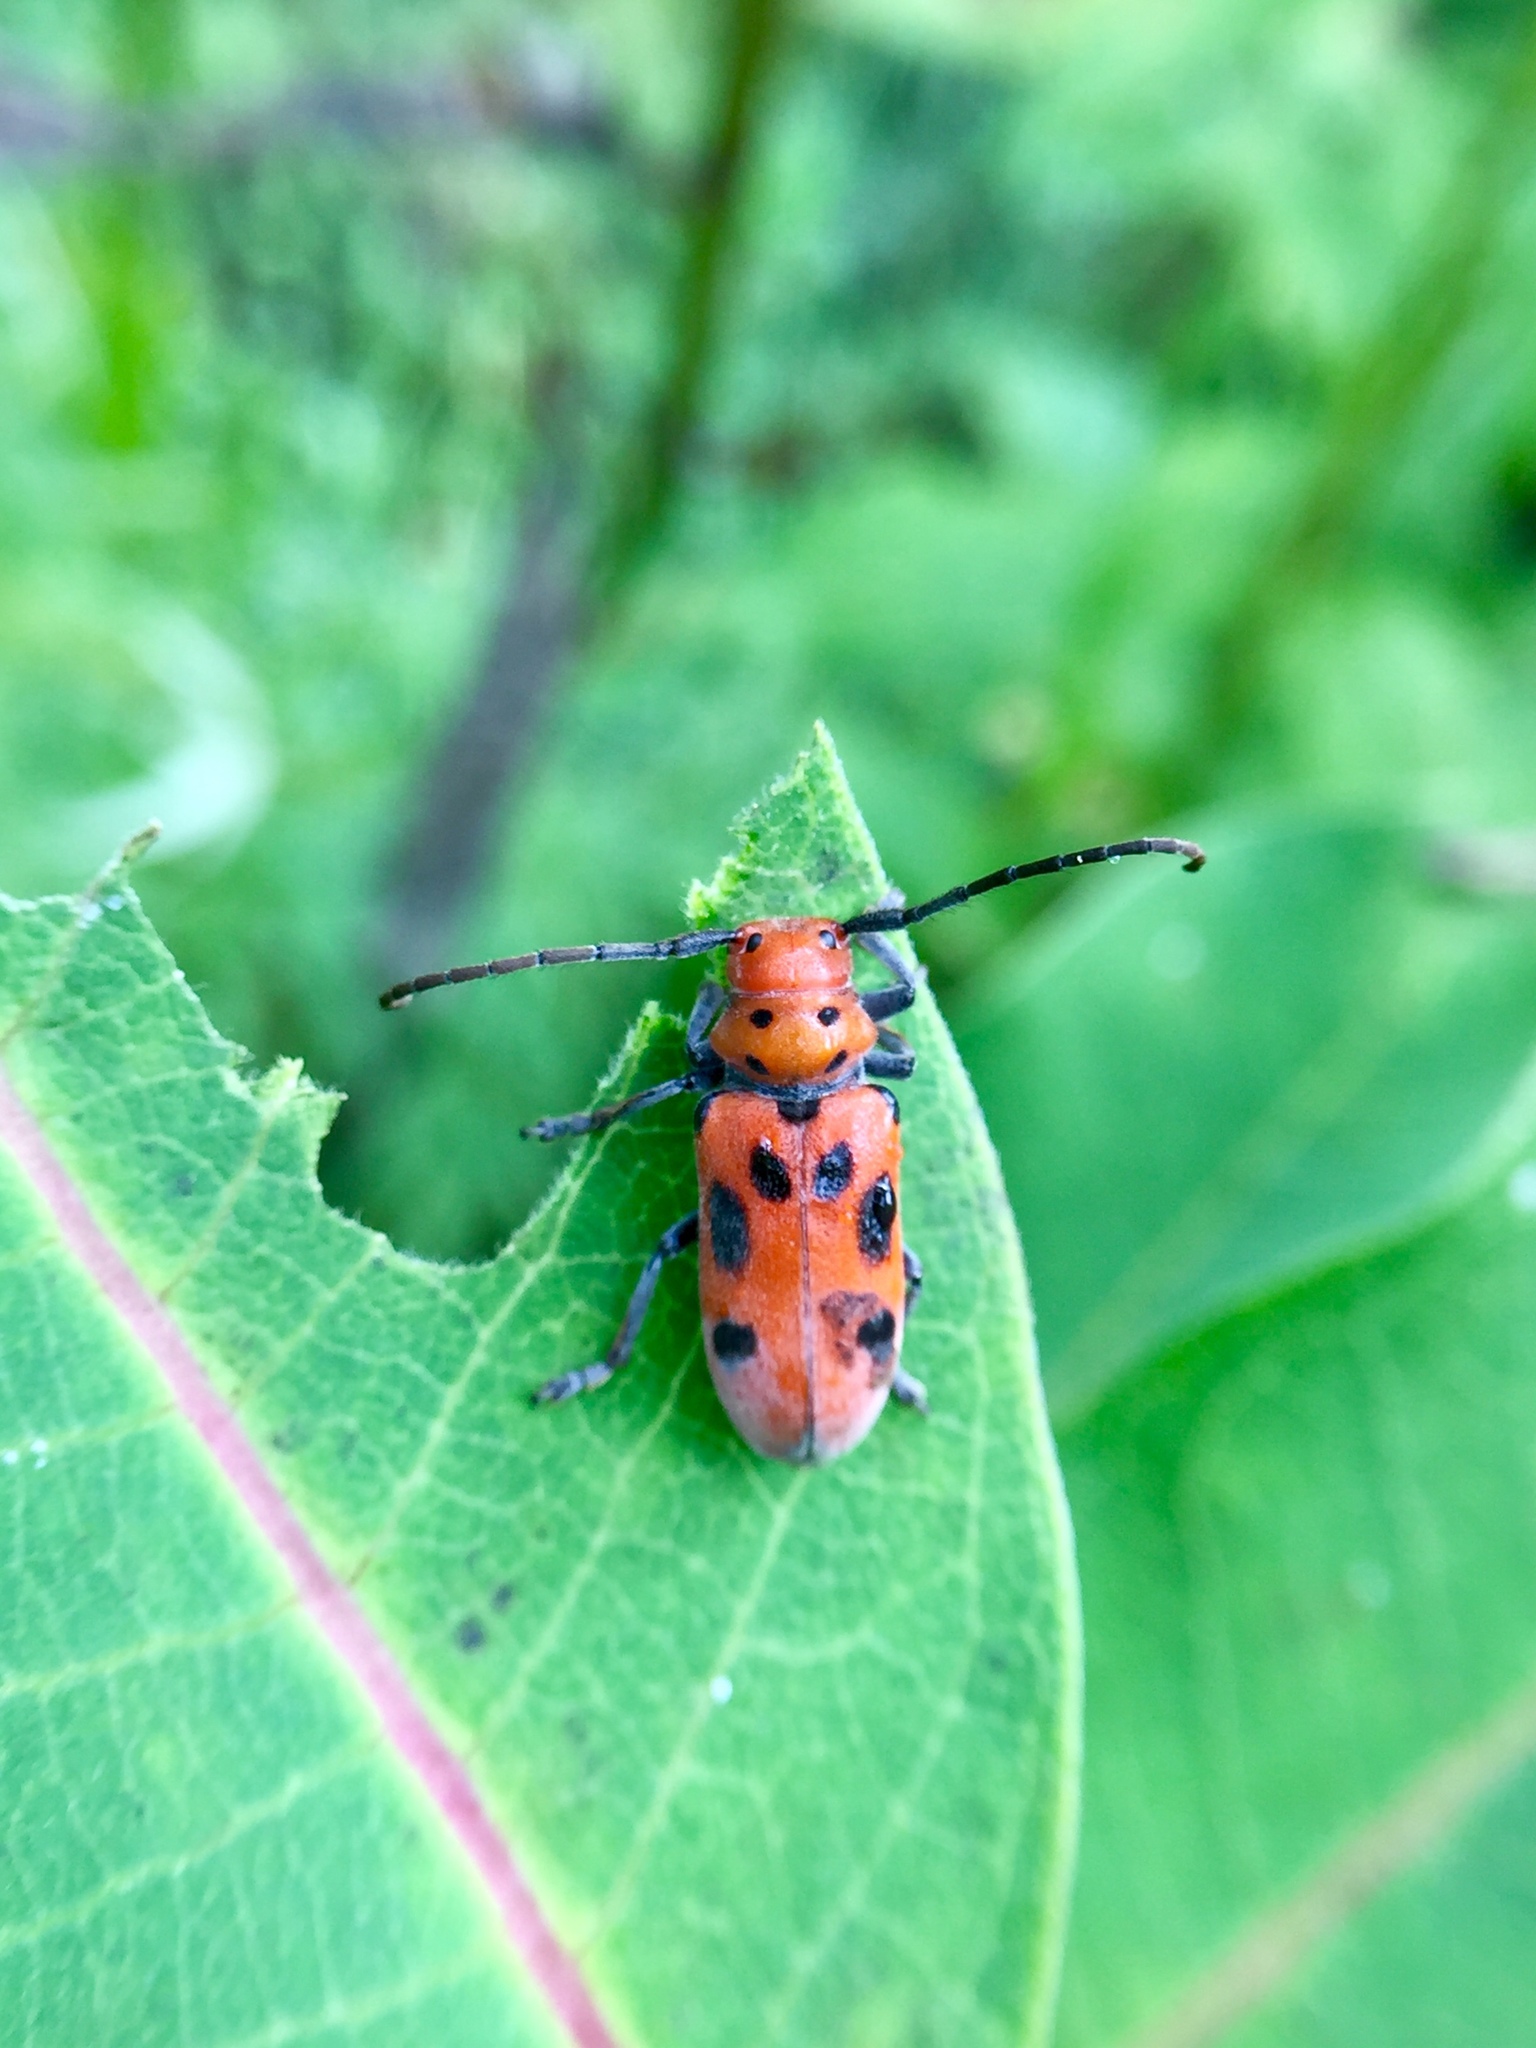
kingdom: Animalia
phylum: Arthropoda
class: Insecta
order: Coleoptera
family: Cerambycidae
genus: Tetraopes
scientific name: Tetraopes tetrophthalmus
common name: Red milkweed beetle
